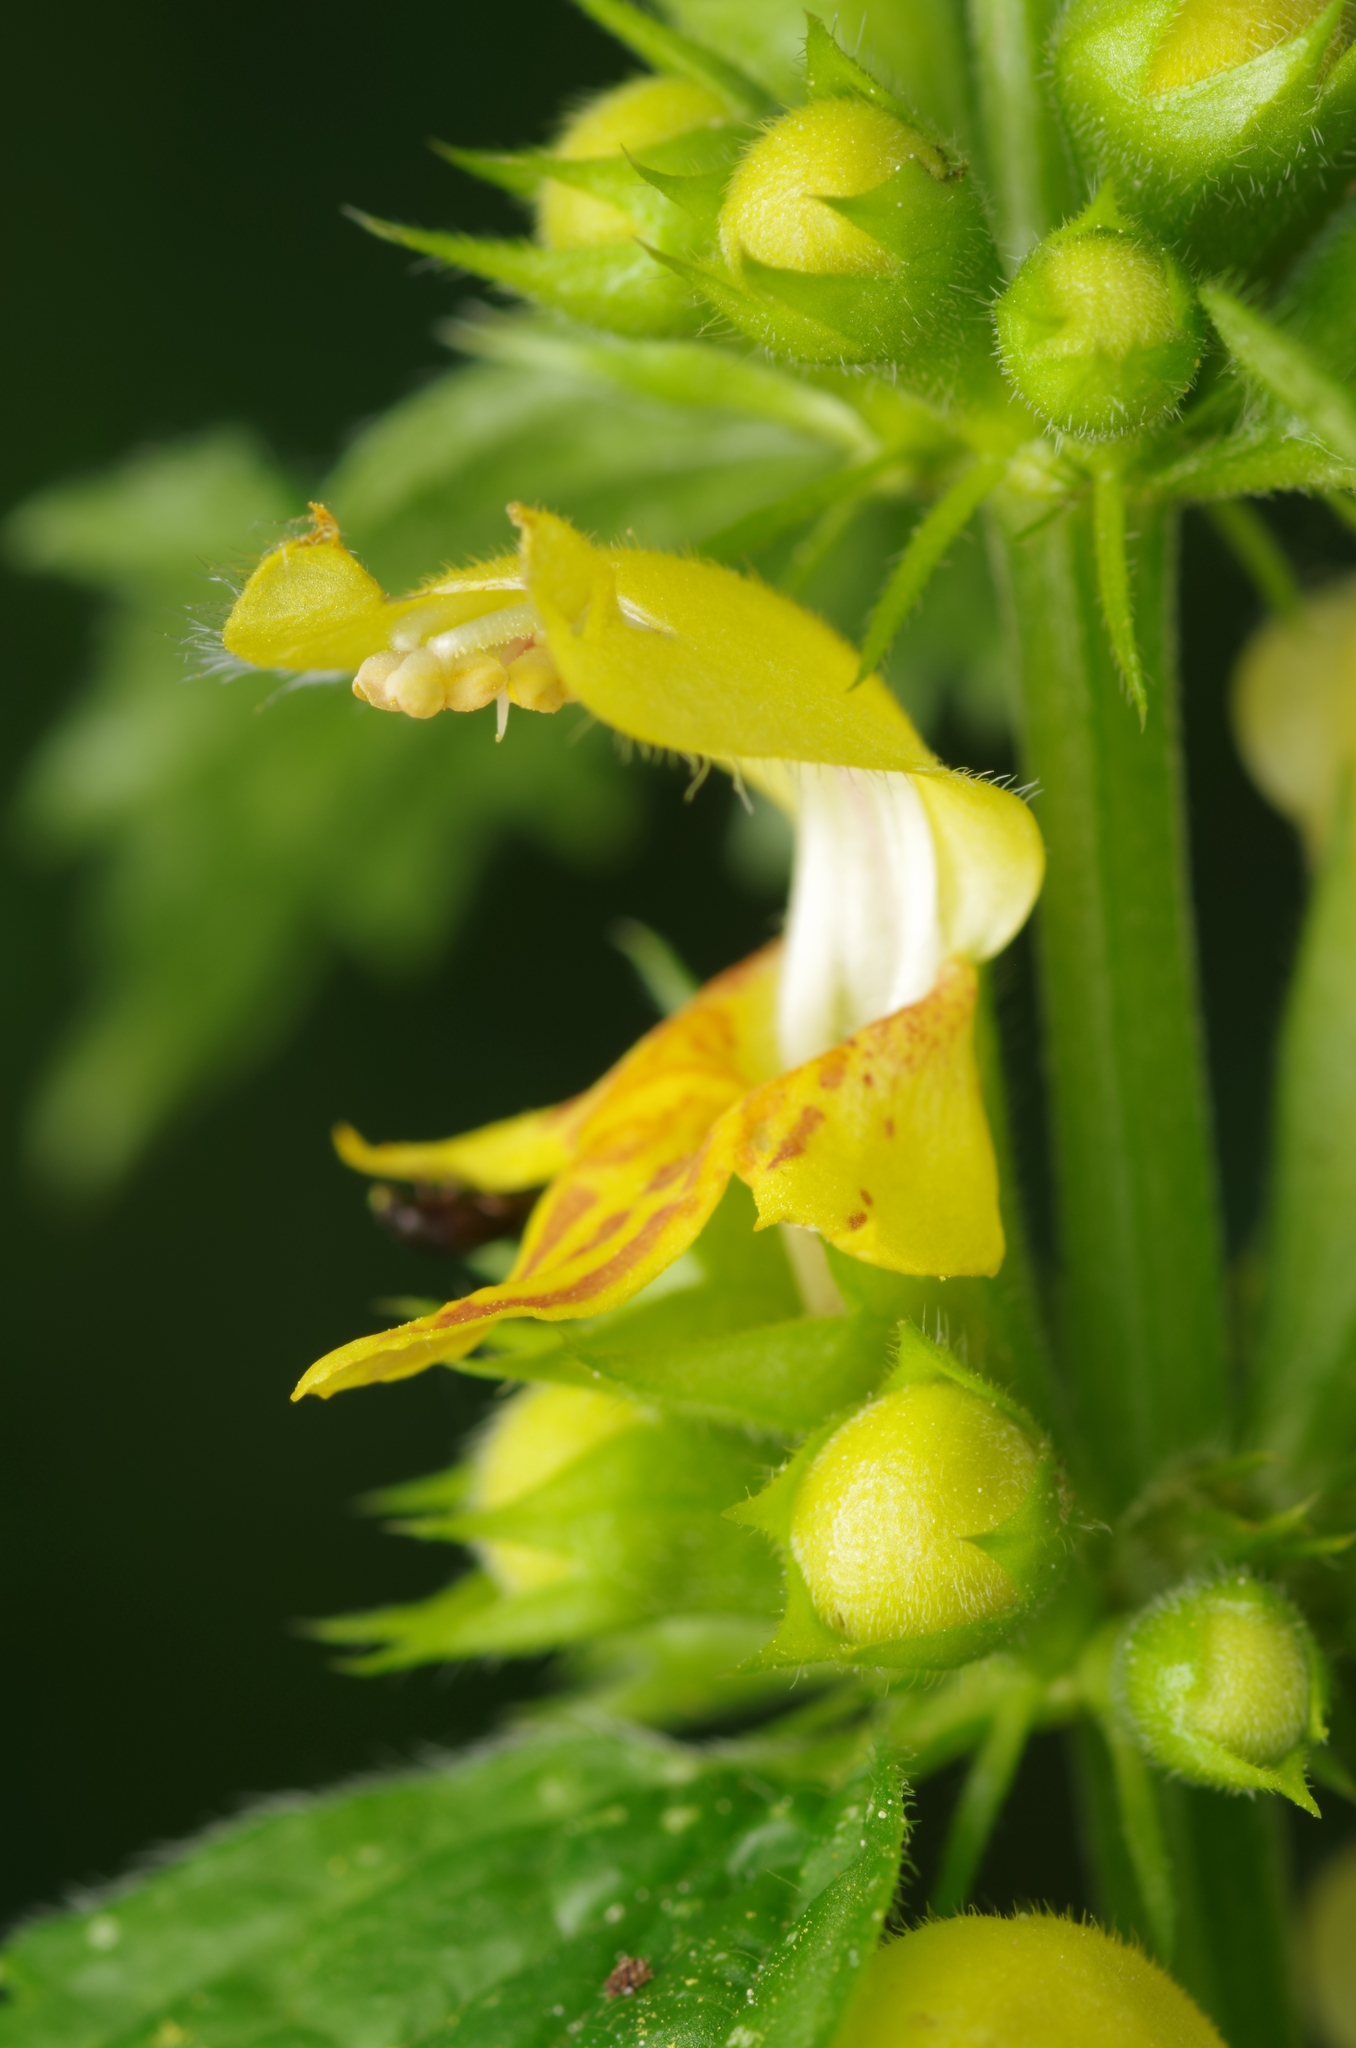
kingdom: Plantae
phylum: Tracheophyta
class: Magnoliopsida
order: Lamiales
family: Lamiaceae
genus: Lamium
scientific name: Lamium galeobdolon
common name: Yellow archangel
